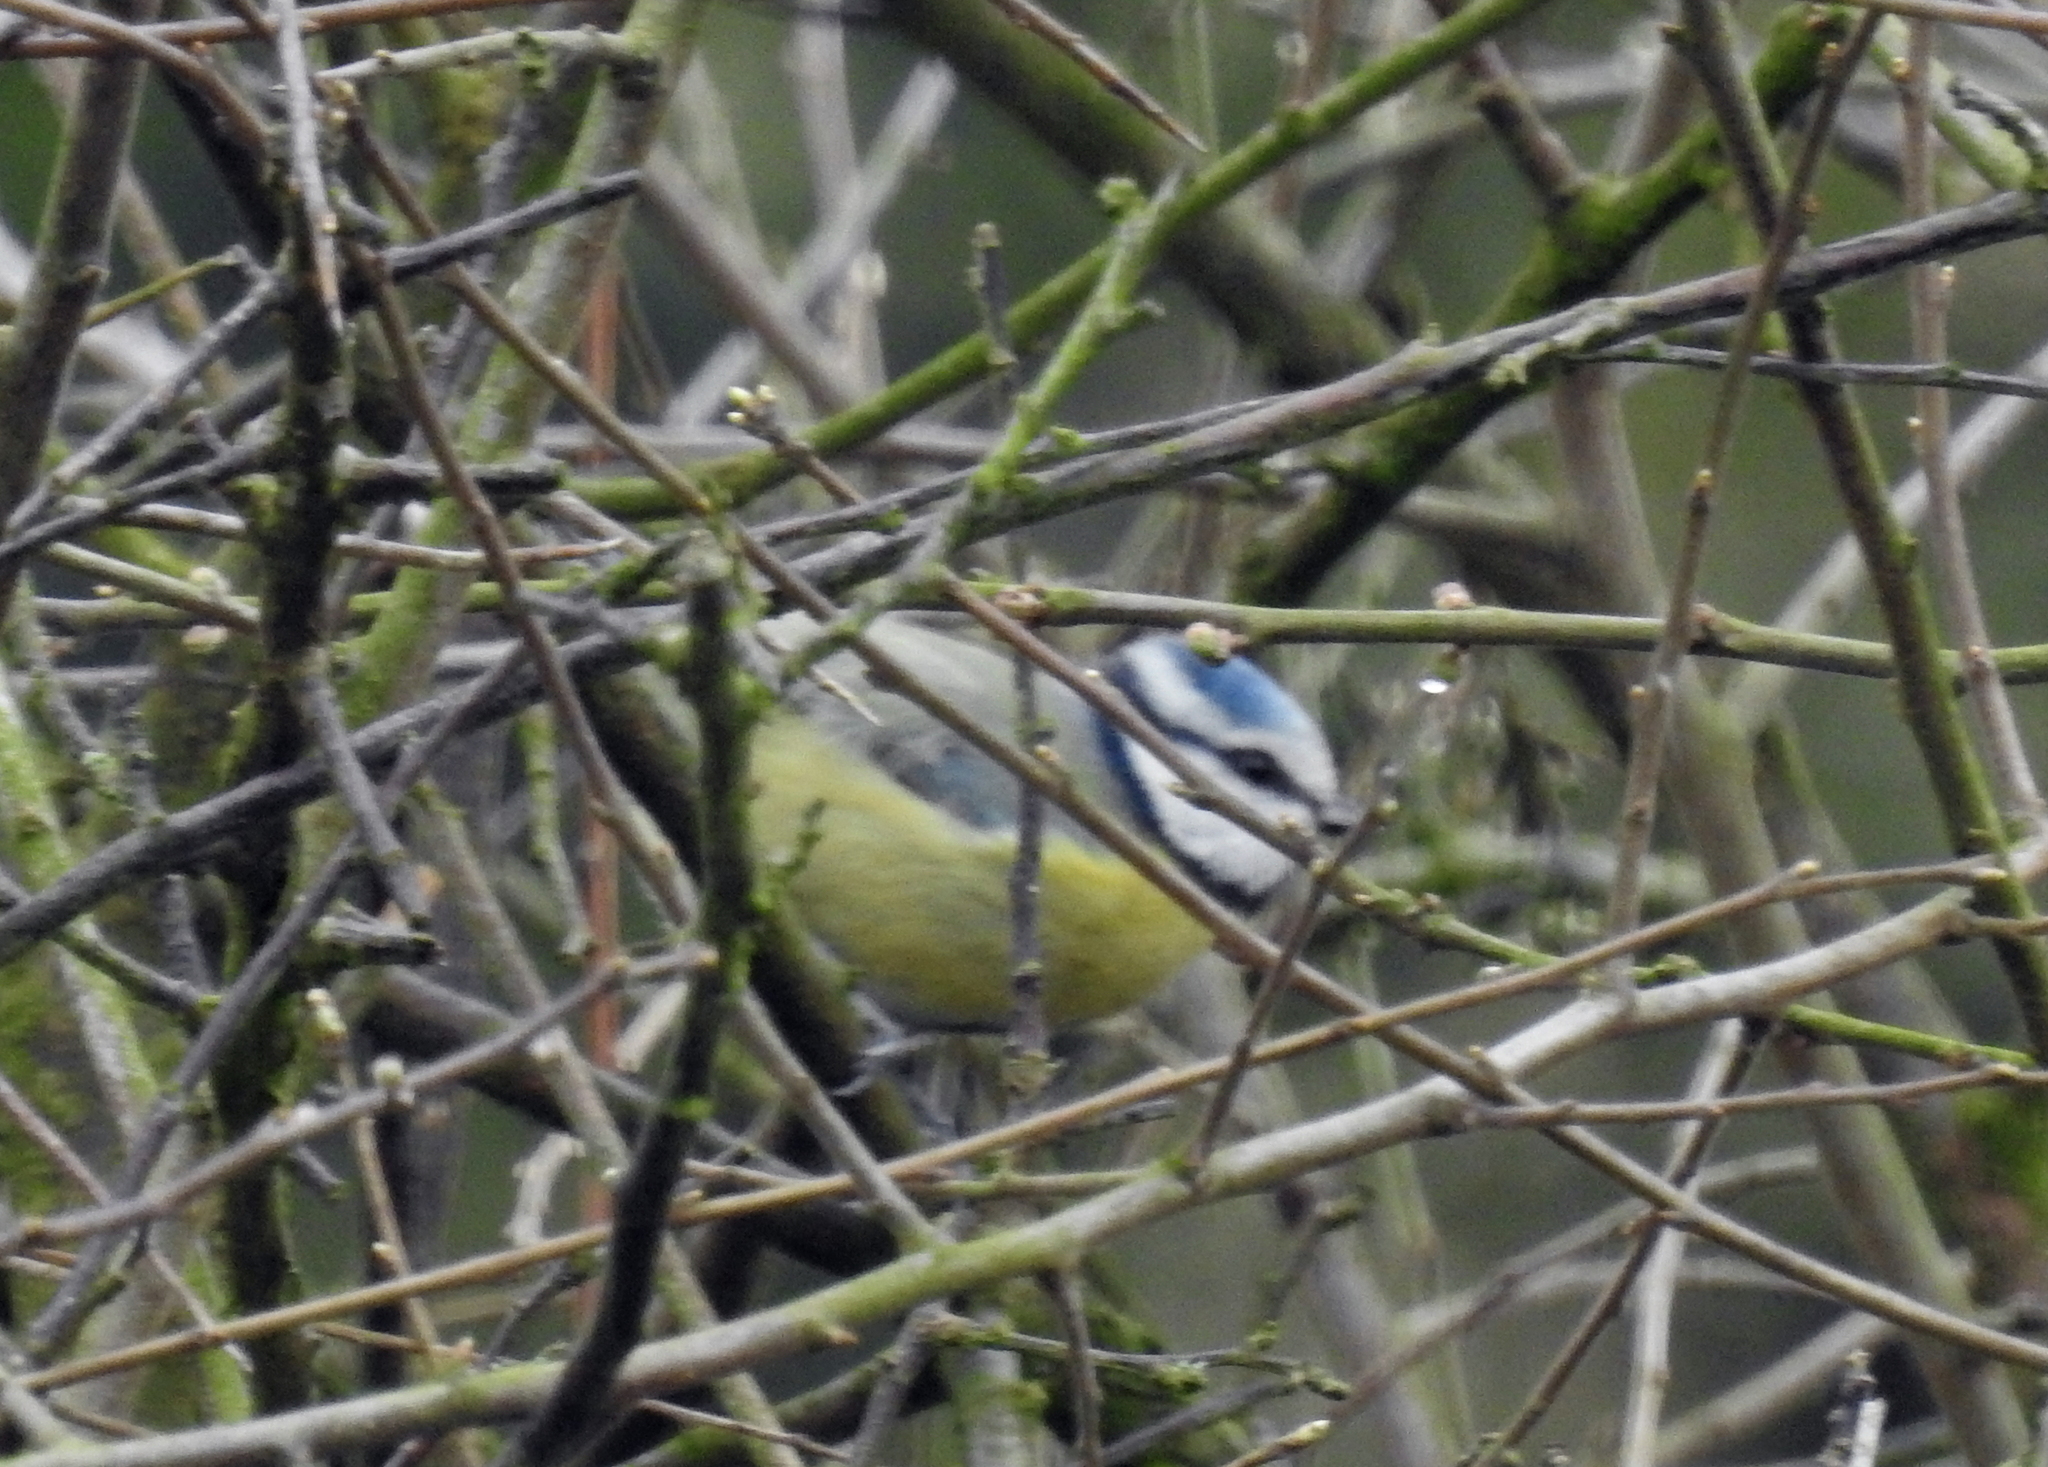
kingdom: Animalia
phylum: Chordata
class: Aves
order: Passeriformes
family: Paridae
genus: Cyanistes
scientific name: Cyanistes caeruleus
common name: Eurasian blue tit
